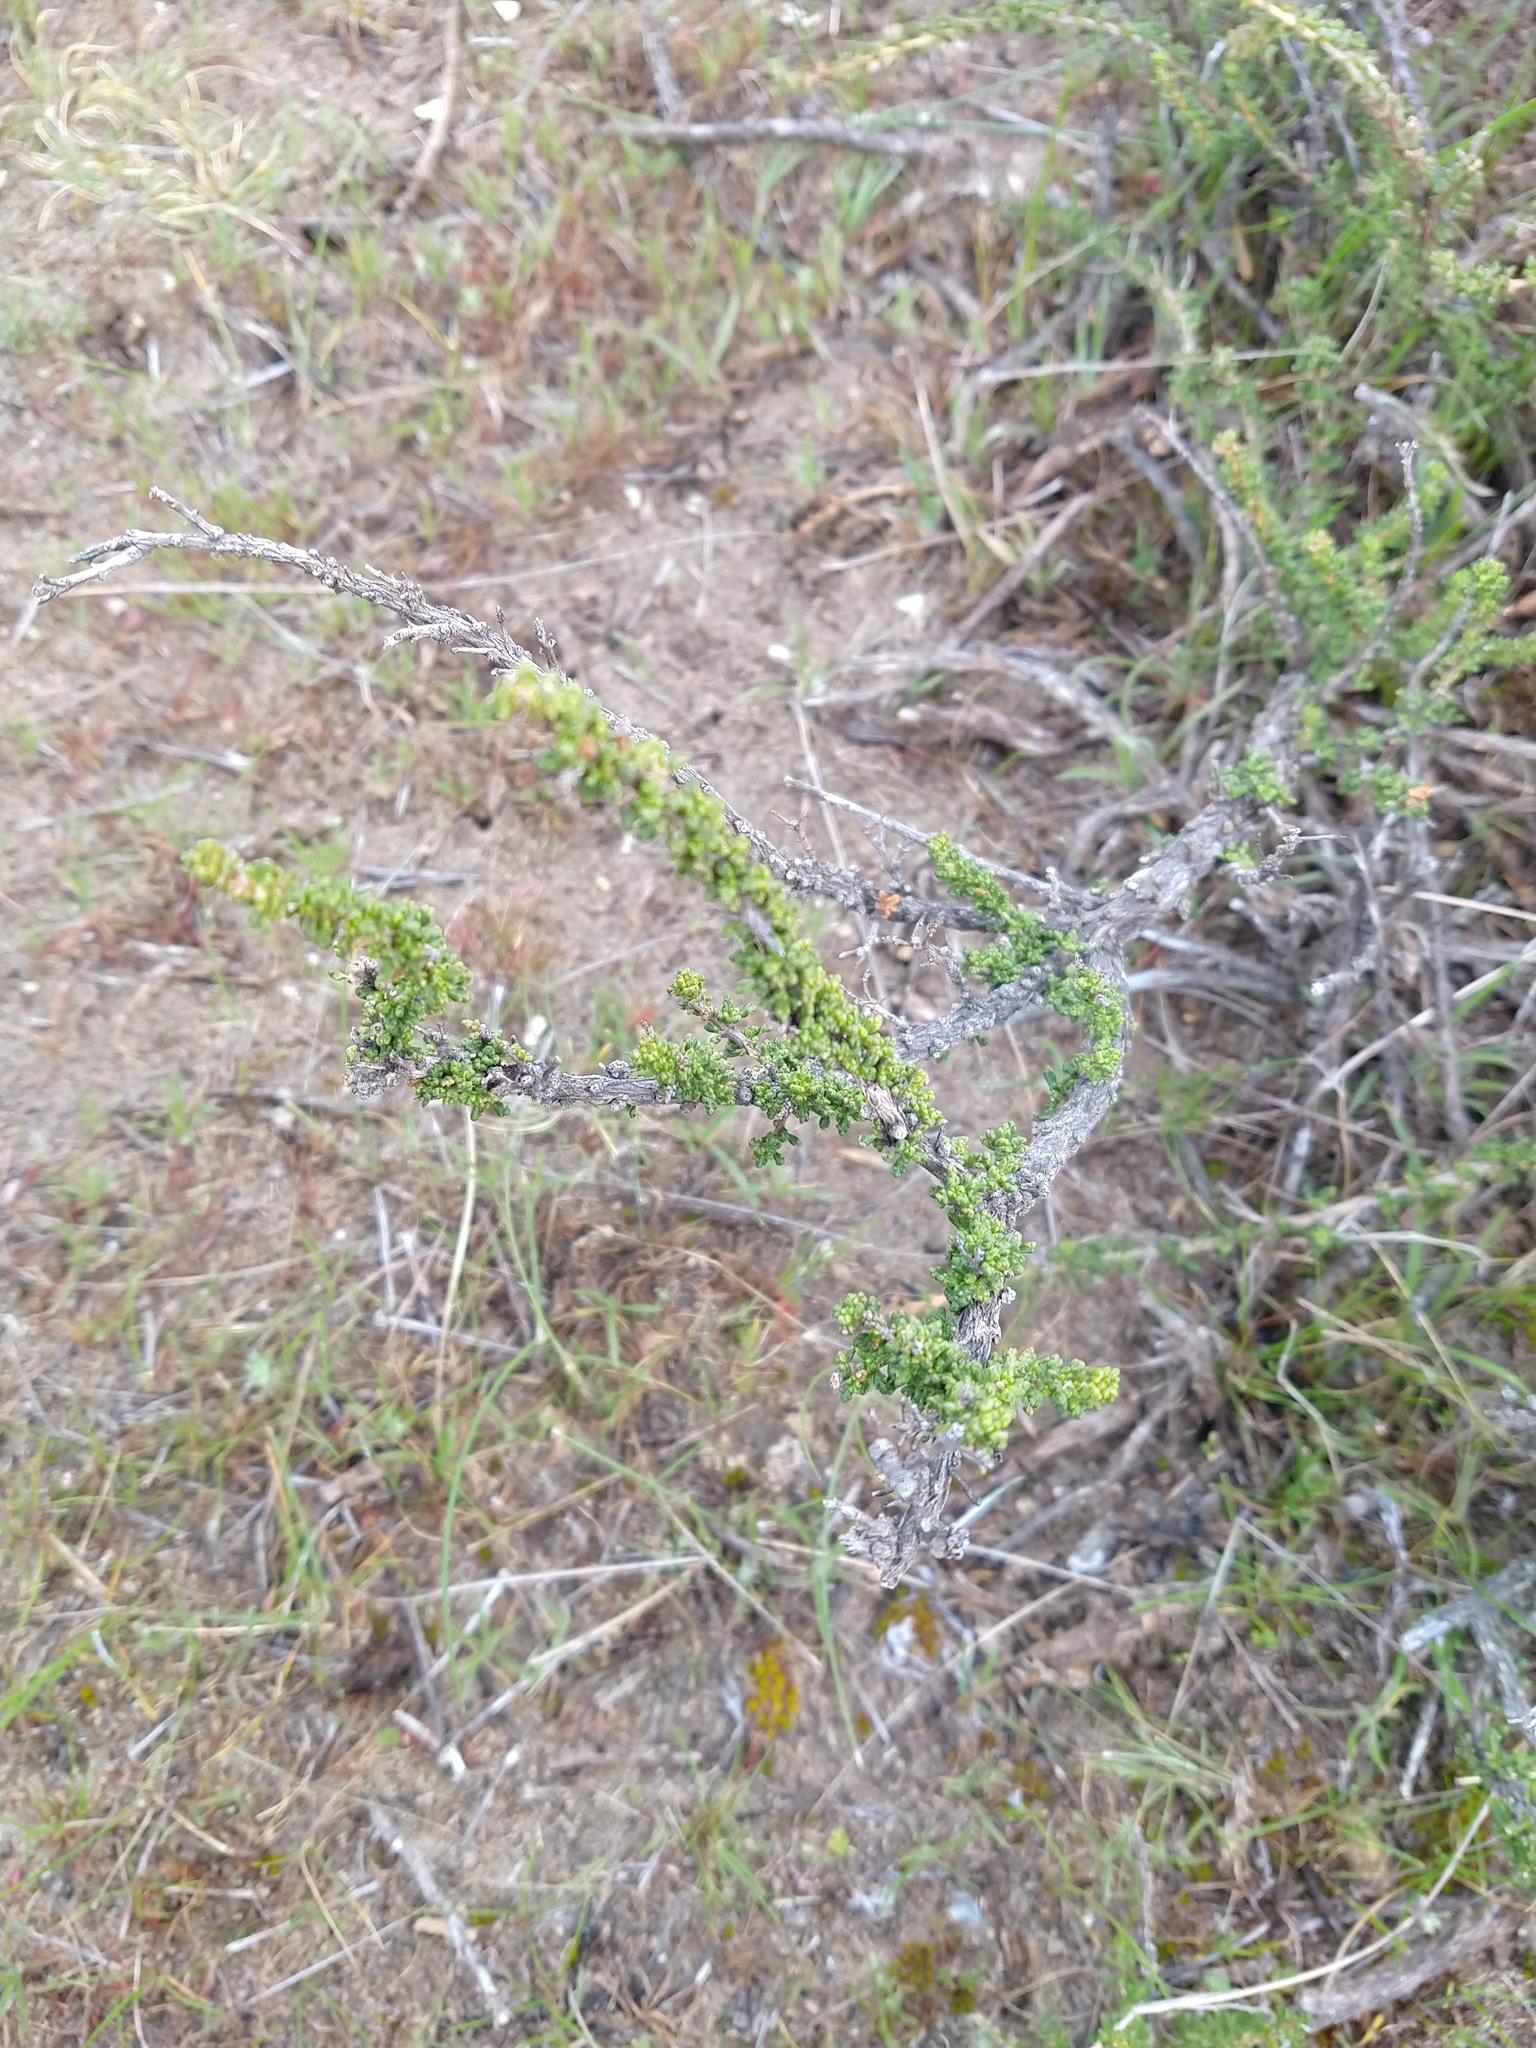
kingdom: Plantae
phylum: Tracheophyta
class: Magnoliopsida
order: Lamiales
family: Verbenaceae
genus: Acantholippia
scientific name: Acantholippia seriphioides
